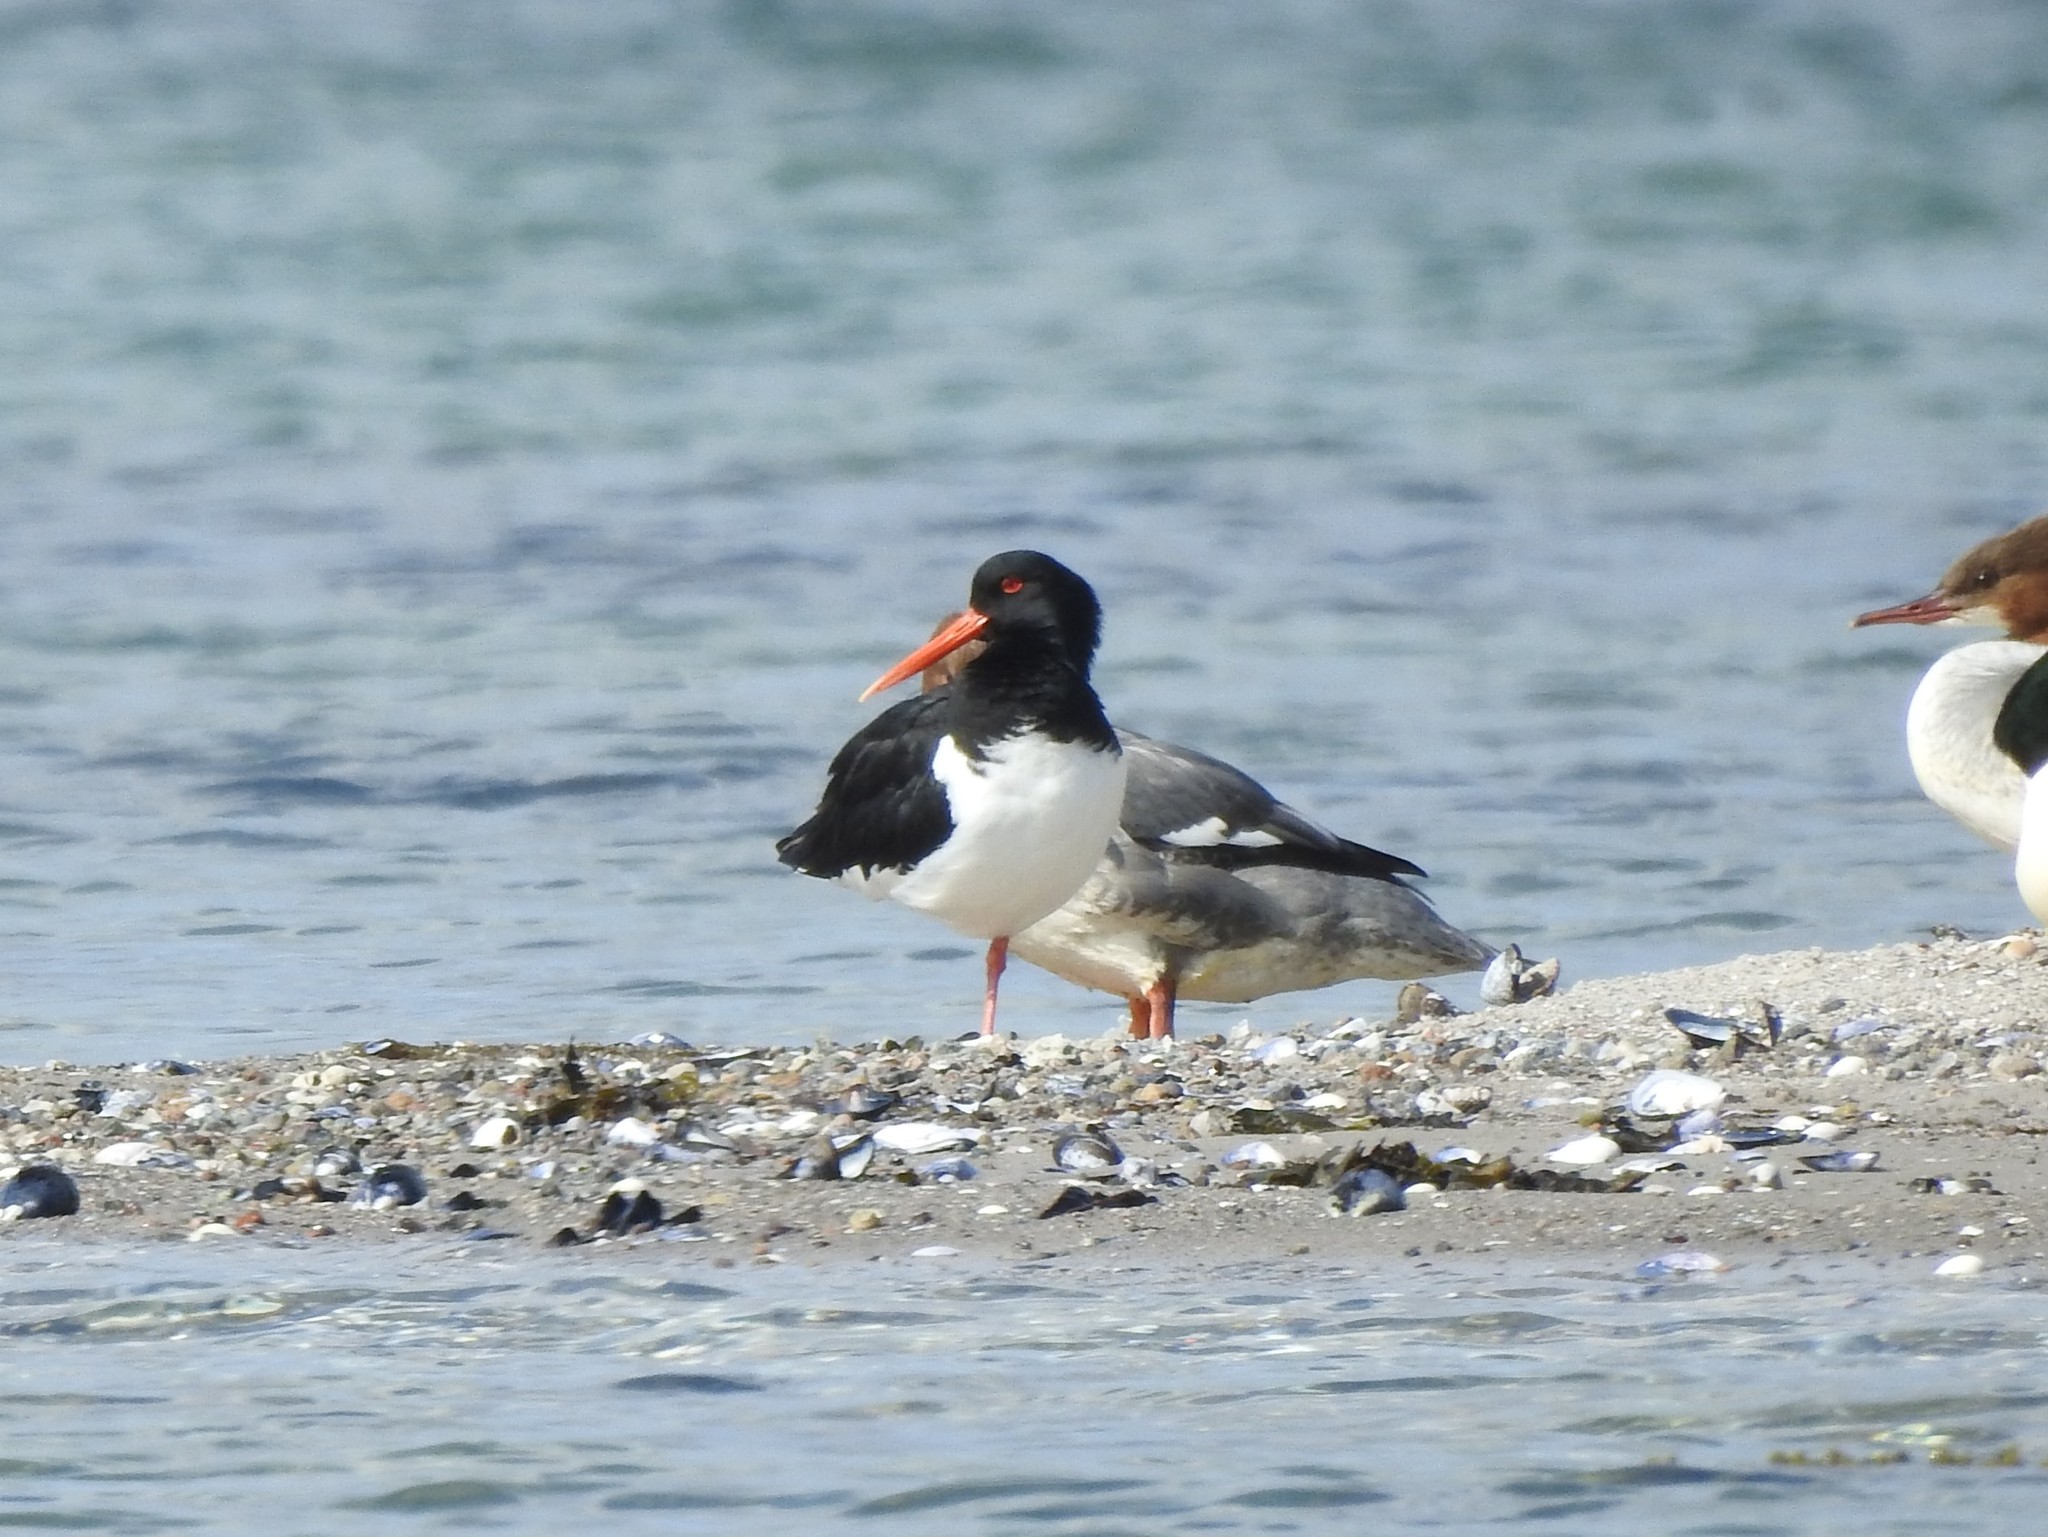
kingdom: Animalia
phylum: Chordata
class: Aves
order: Charadriiformes
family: Haematopodidae
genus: Haematopus
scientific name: Haematopus ostralegus
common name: Eurasian oystercatcher
